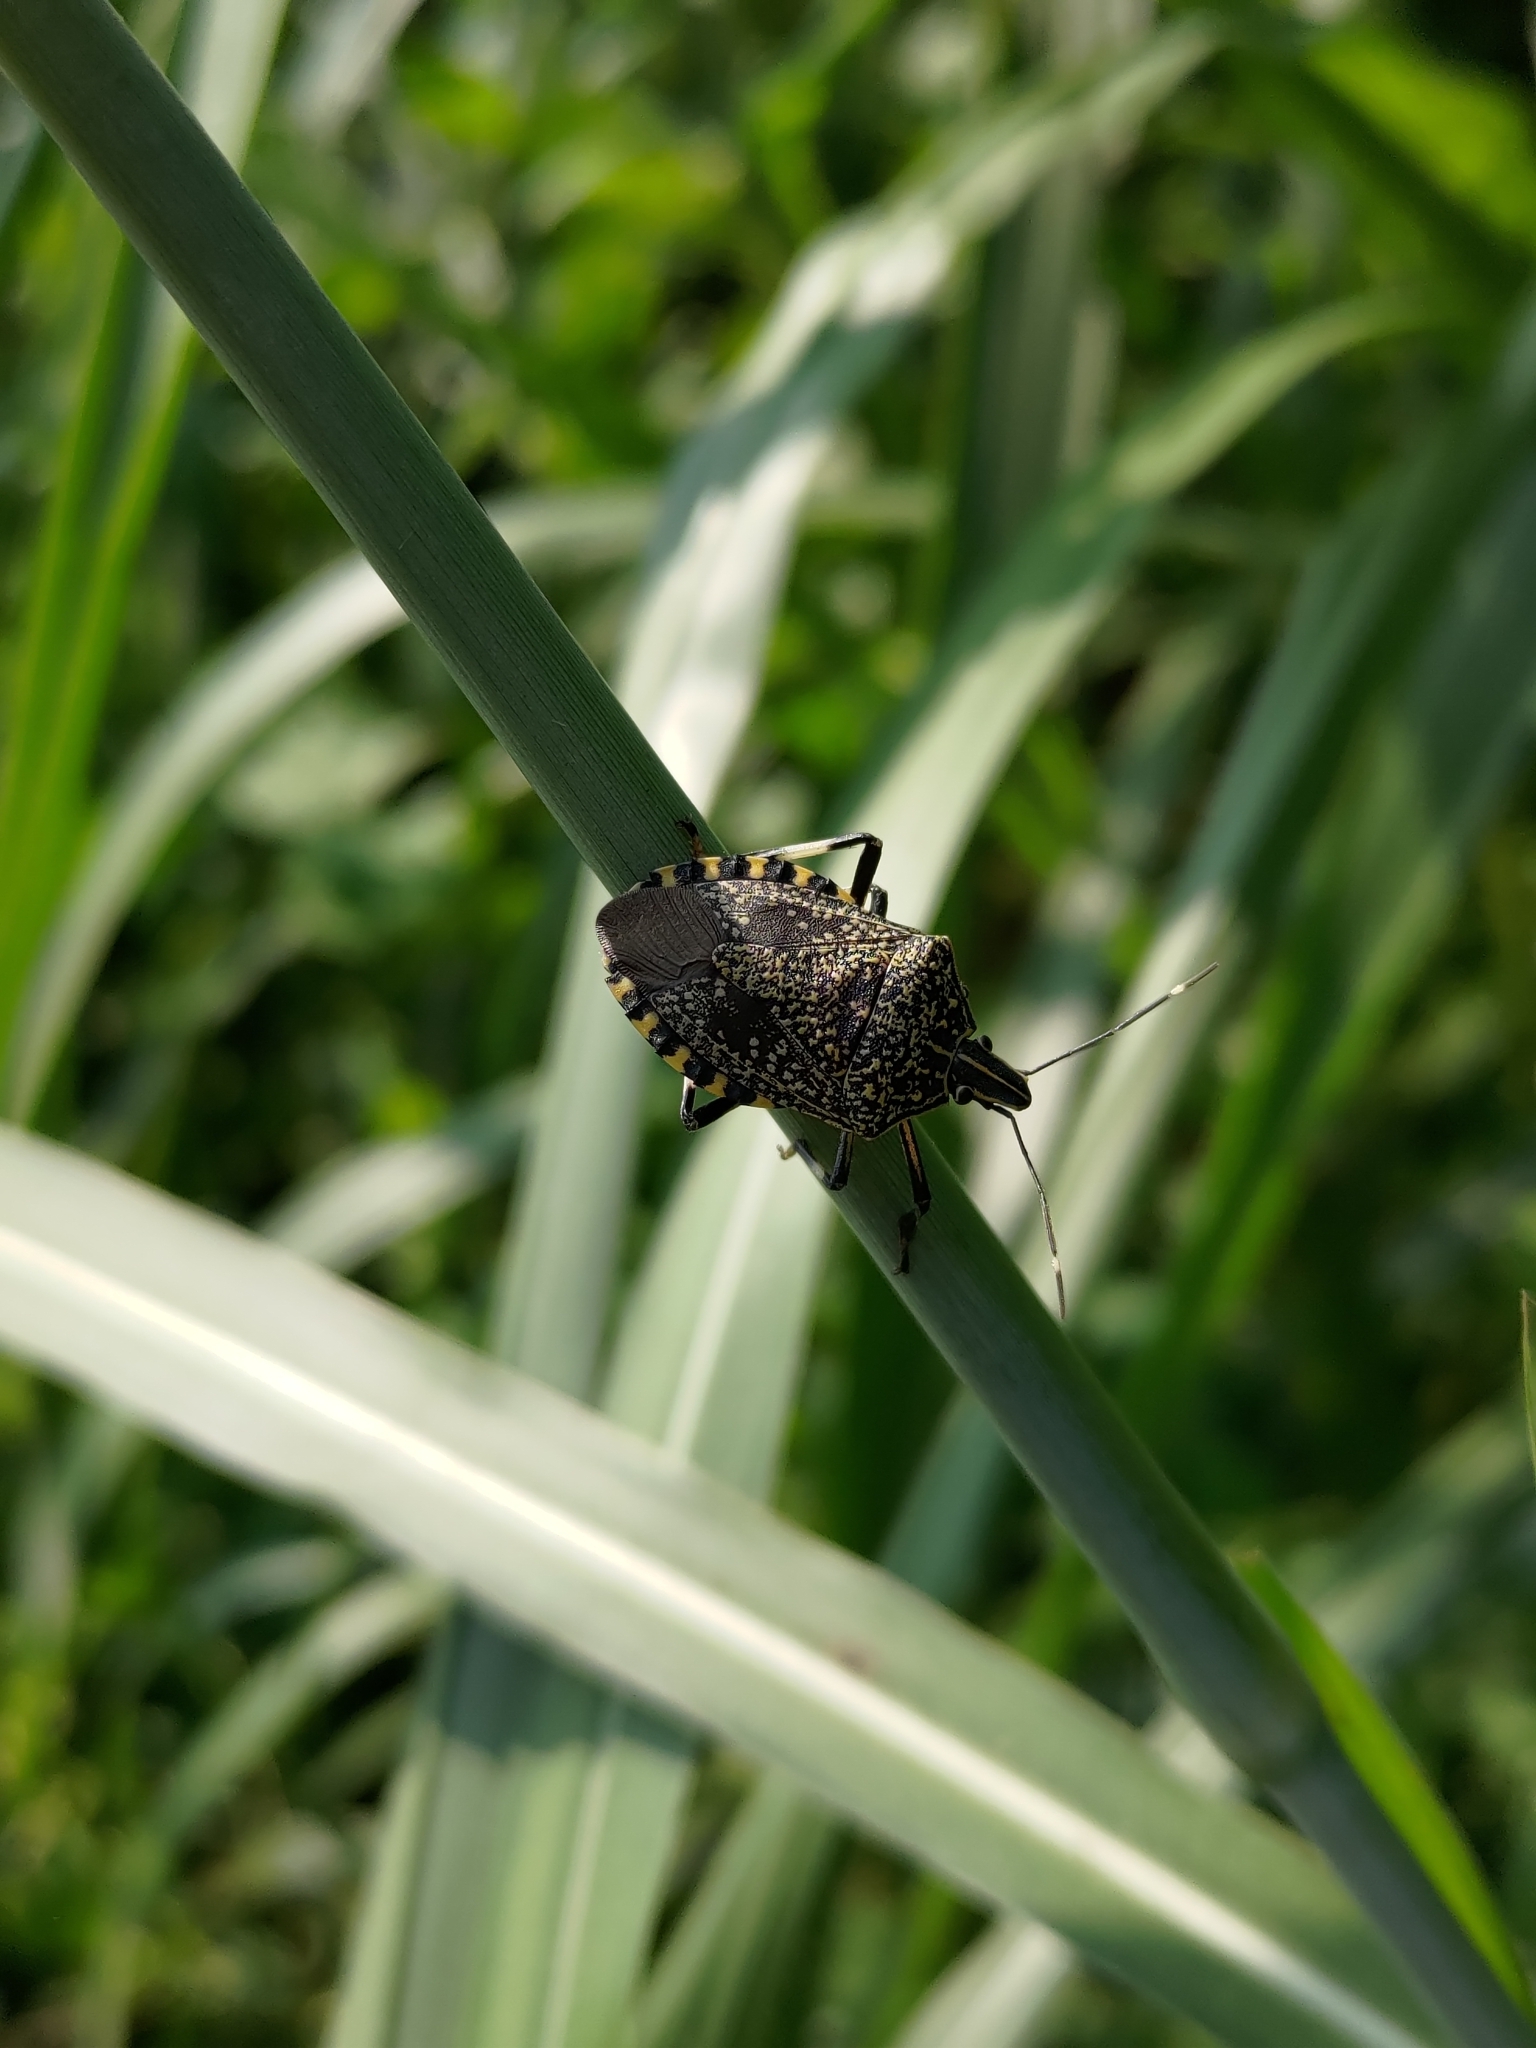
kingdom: Animalia
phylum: Arthropoda
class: Insecta
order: Hemiptera
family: Pentatomidae
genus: Erthesina
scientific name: Erthesina fullo
